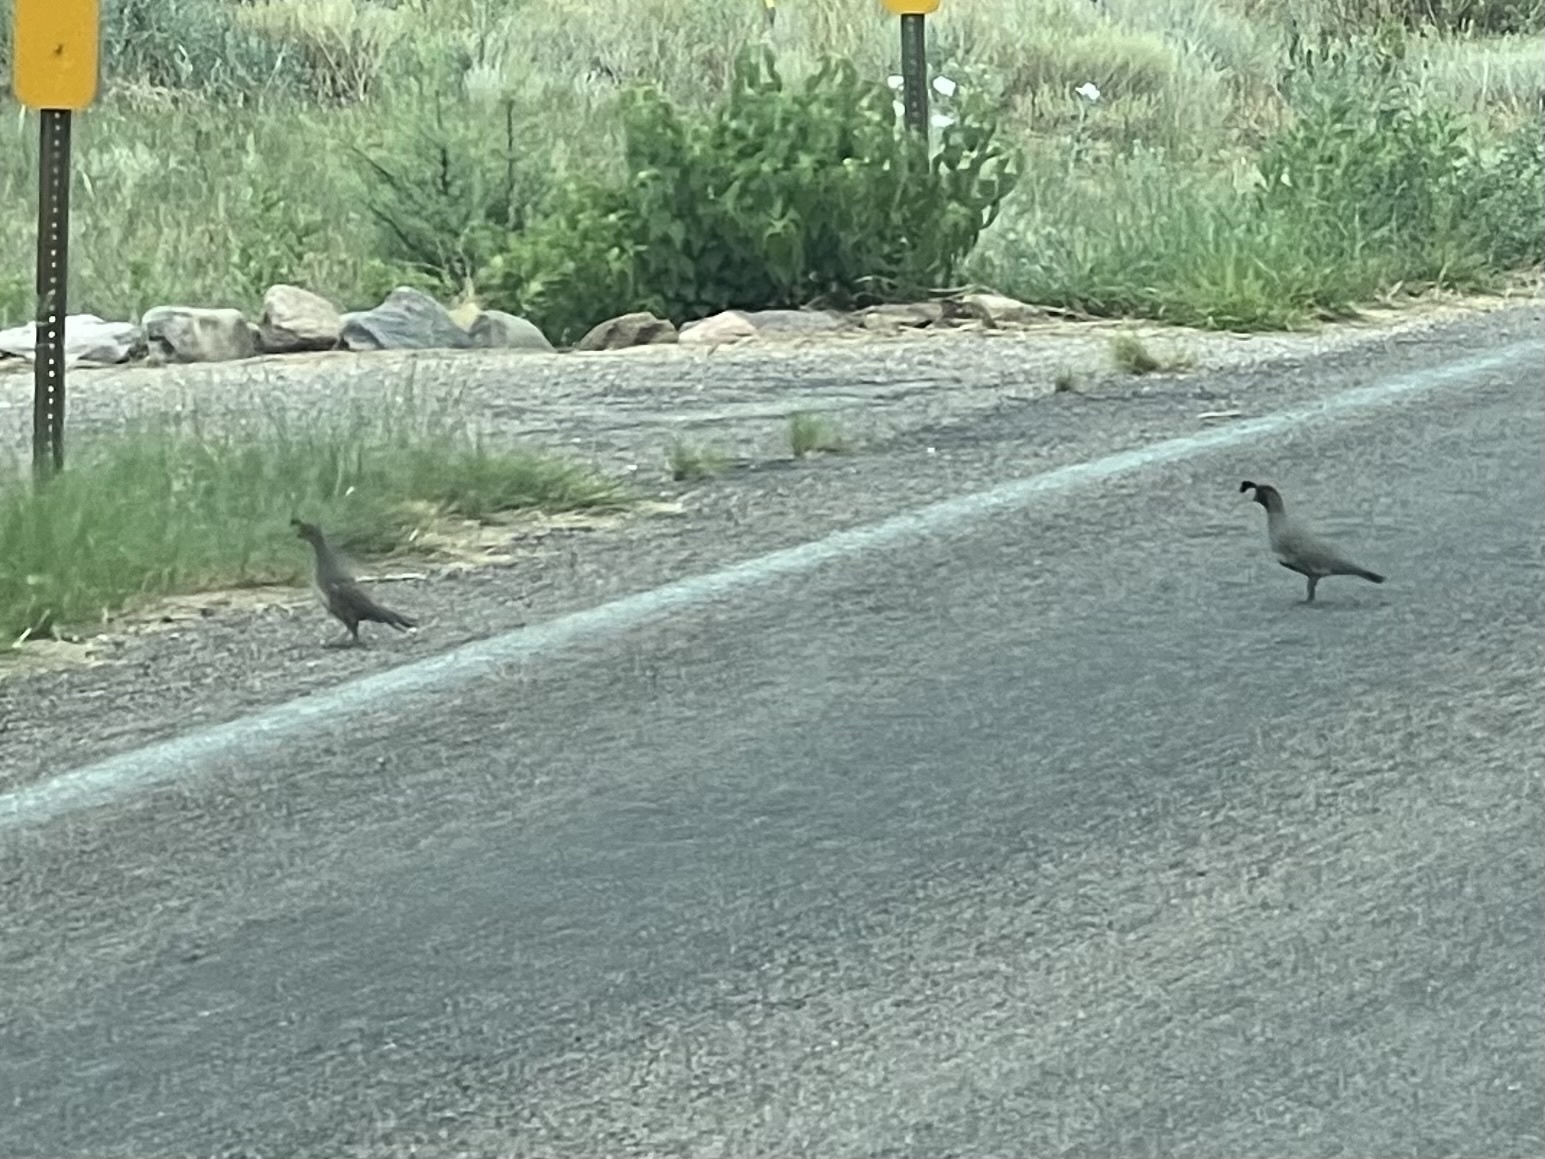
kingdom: Animalia
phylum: Chordata
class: Aves
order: Galliformes
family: Odontophoridae
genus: Callipepla
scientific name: Callipepla gambelii
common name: Gambel's quail
